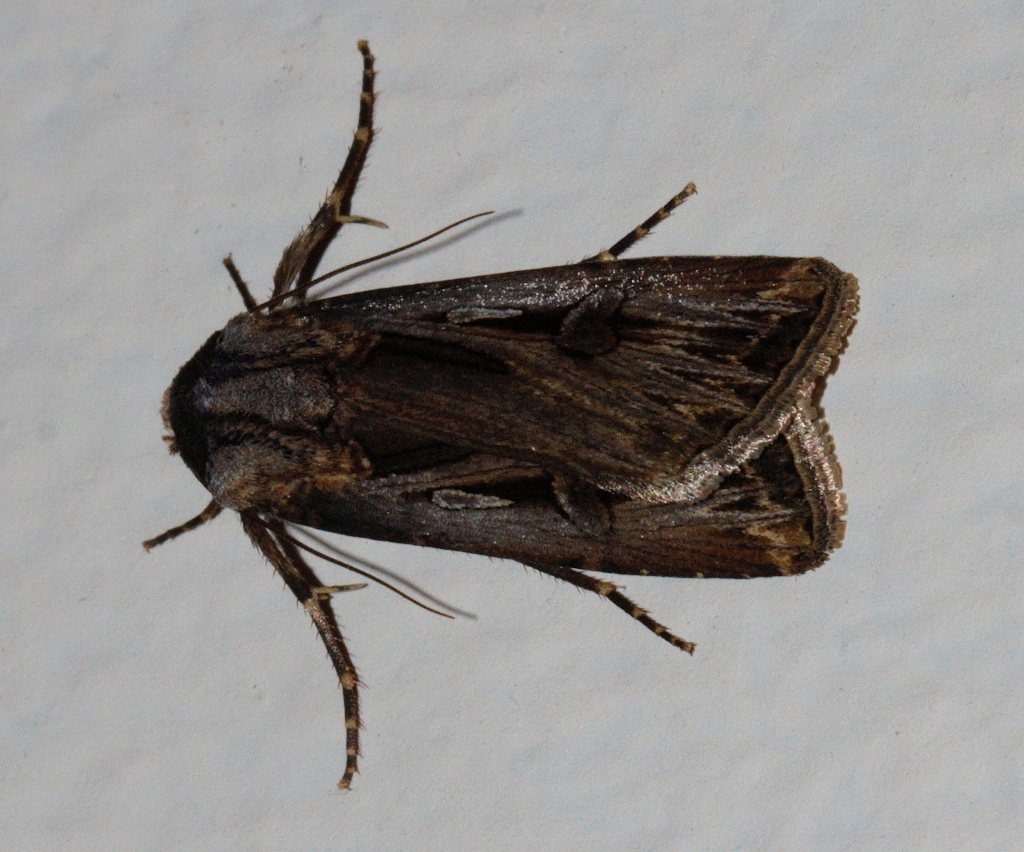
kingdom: Animalia
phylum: Arthropoda
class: Insecta
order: Lepidoptera
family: Noctuidae
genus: Agrotis
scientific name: Agrotis
